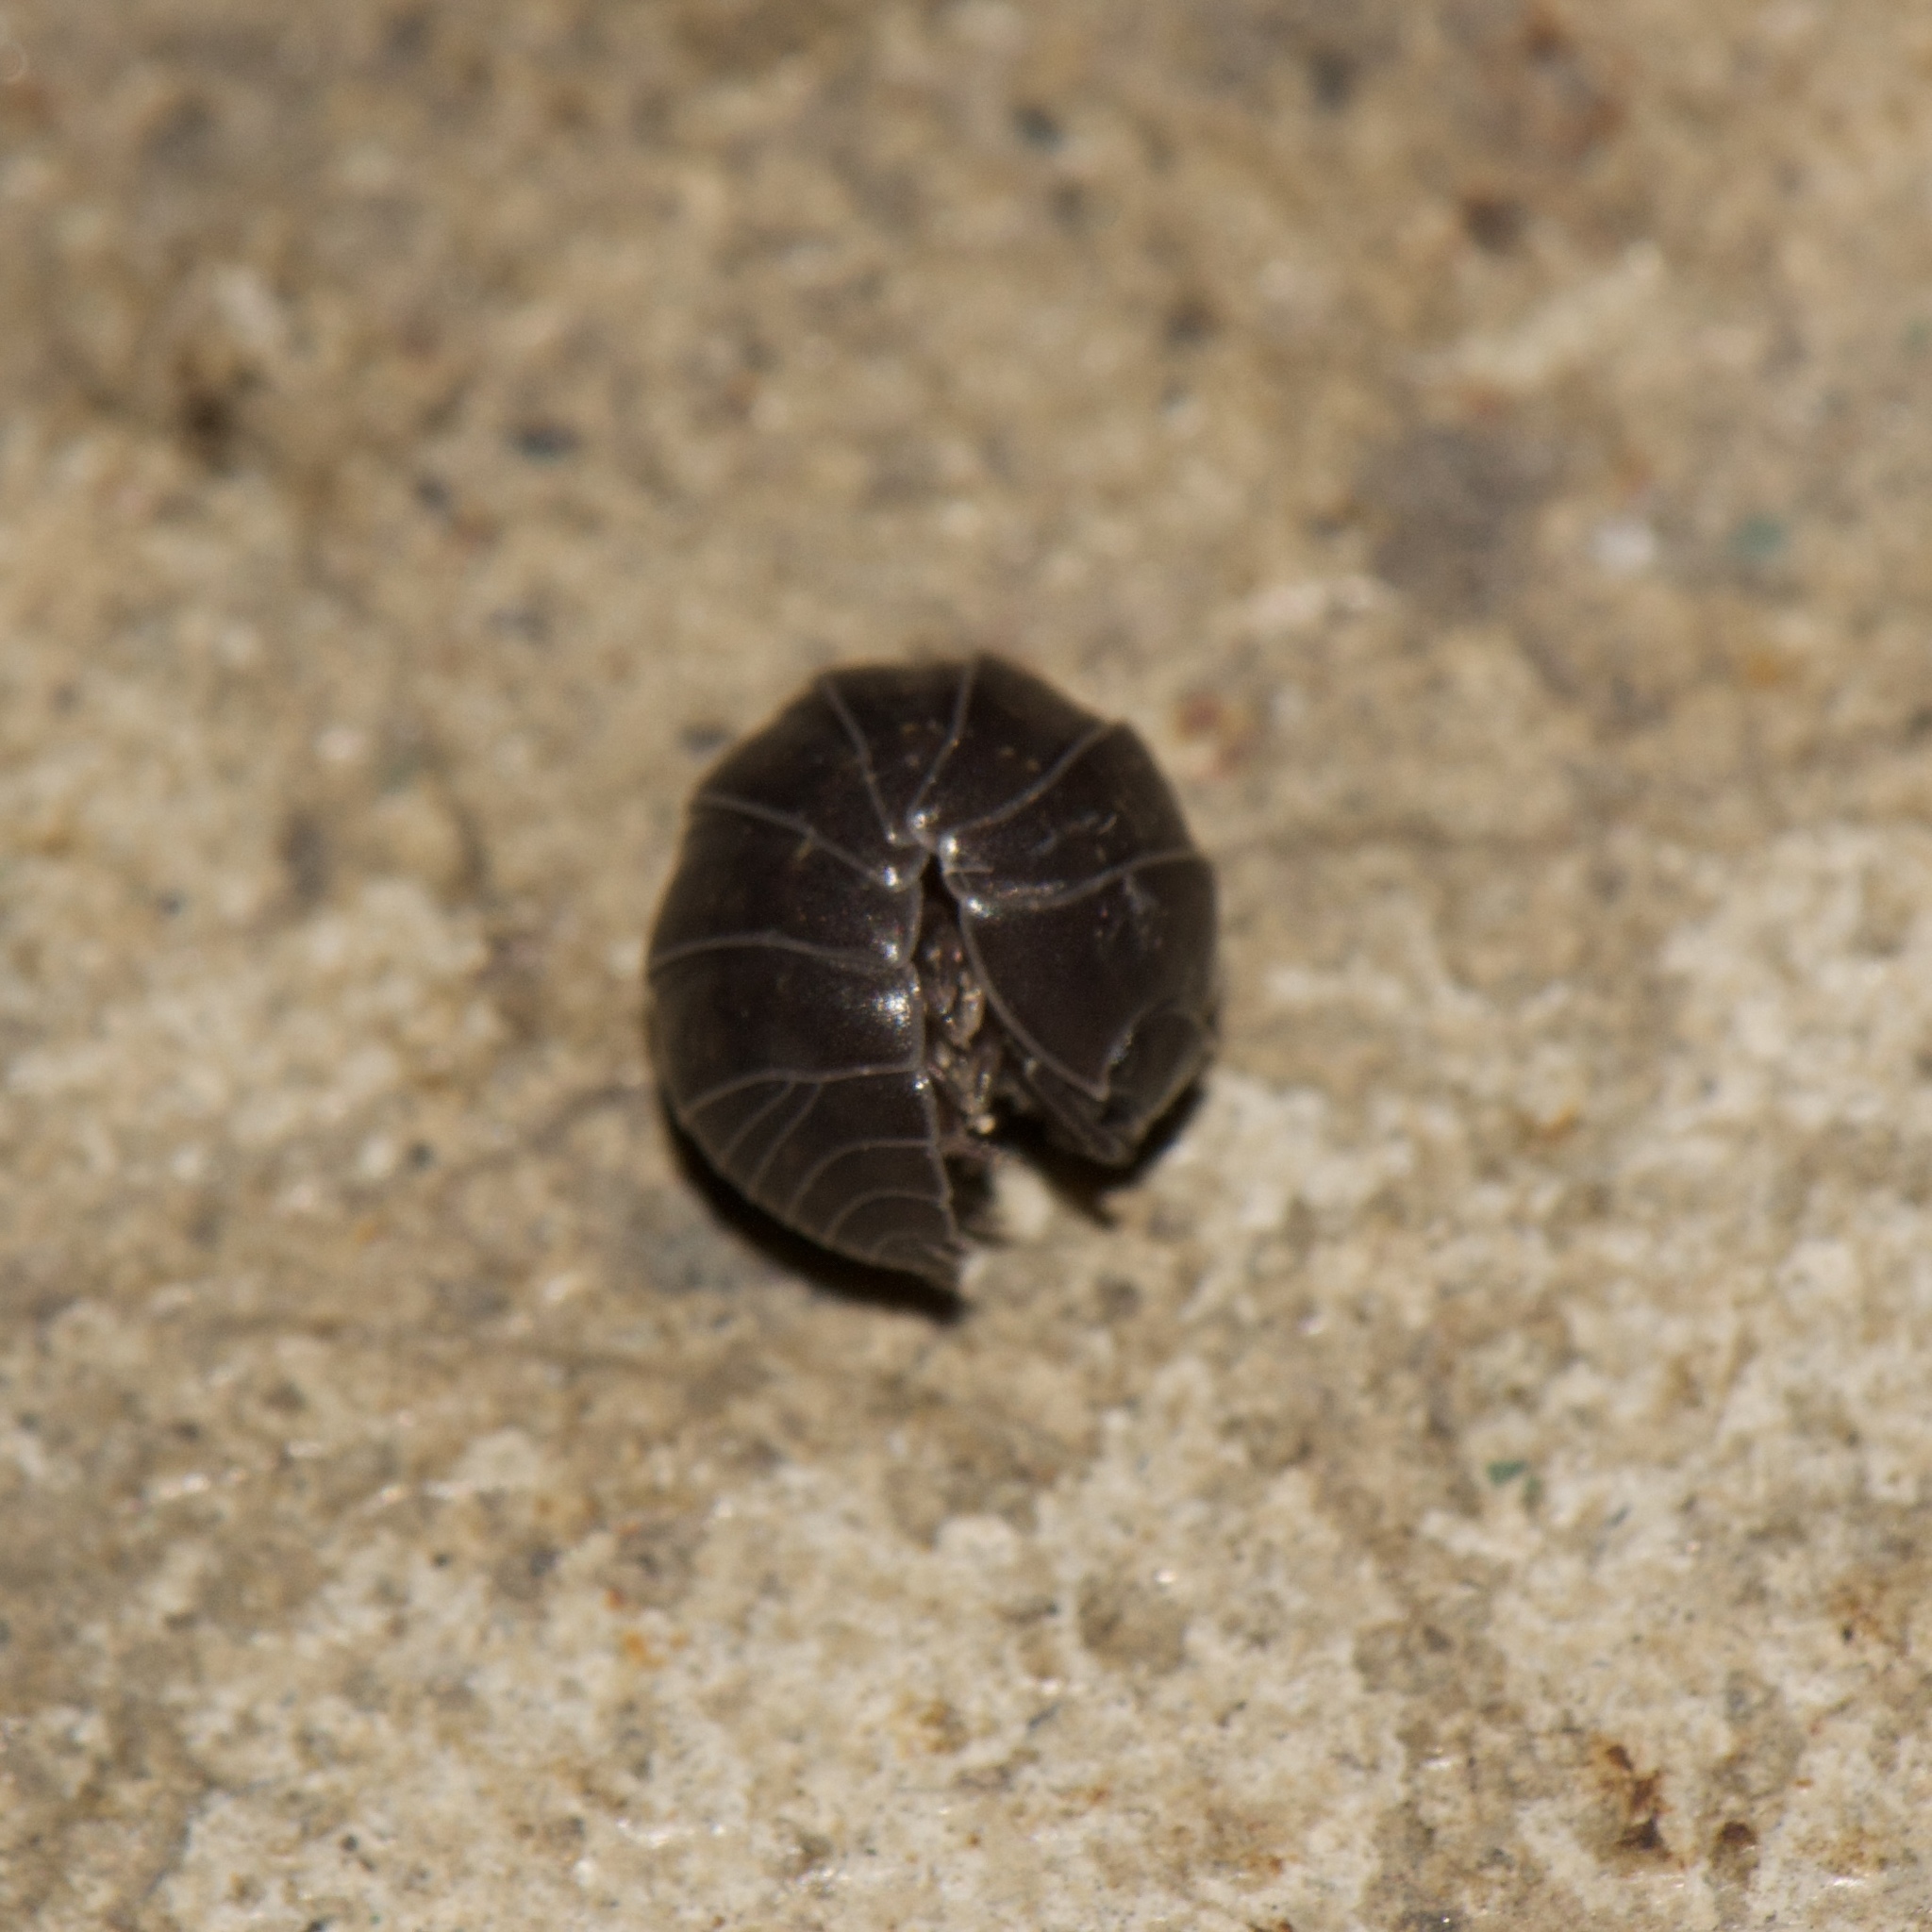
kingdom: Animalia
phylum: Arthropoda
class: Malacostraca
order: Isopoda
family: Armadillidiidae
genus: Armadillidium
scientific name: Armadillidium vulgare
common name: Common pill woodlouse
